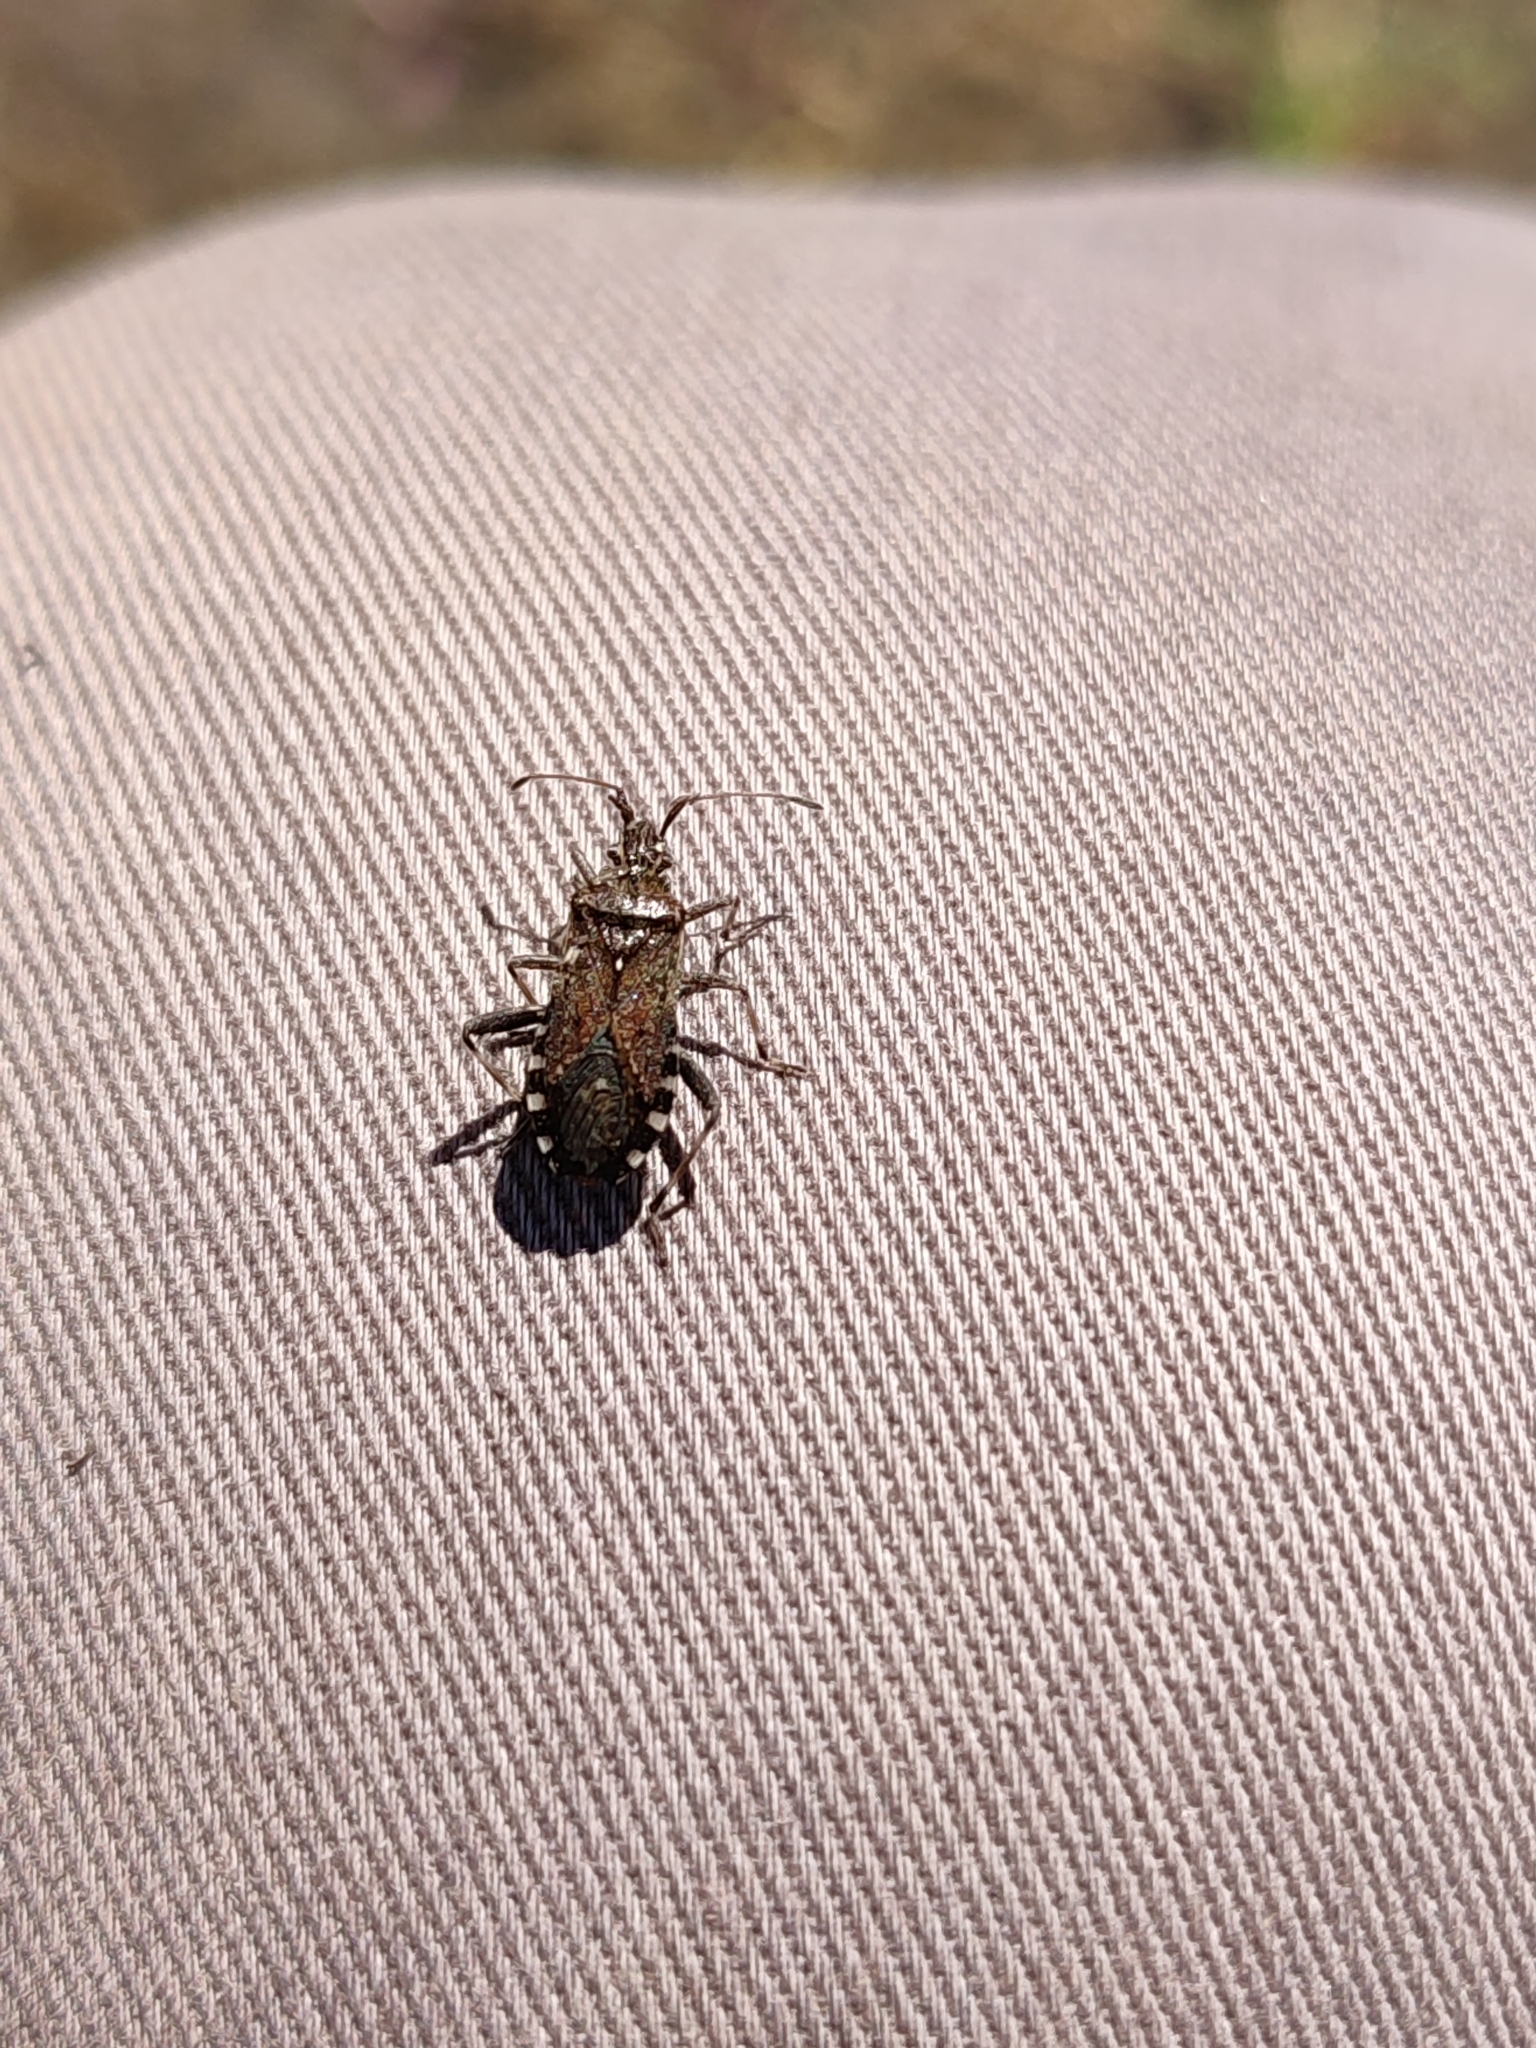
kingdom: Animalia
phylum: Arthropoda
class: Insecta
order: Hemiptera
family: Coreidae
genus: Ceraleptus
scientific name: Ceraleptus gracilicornis
